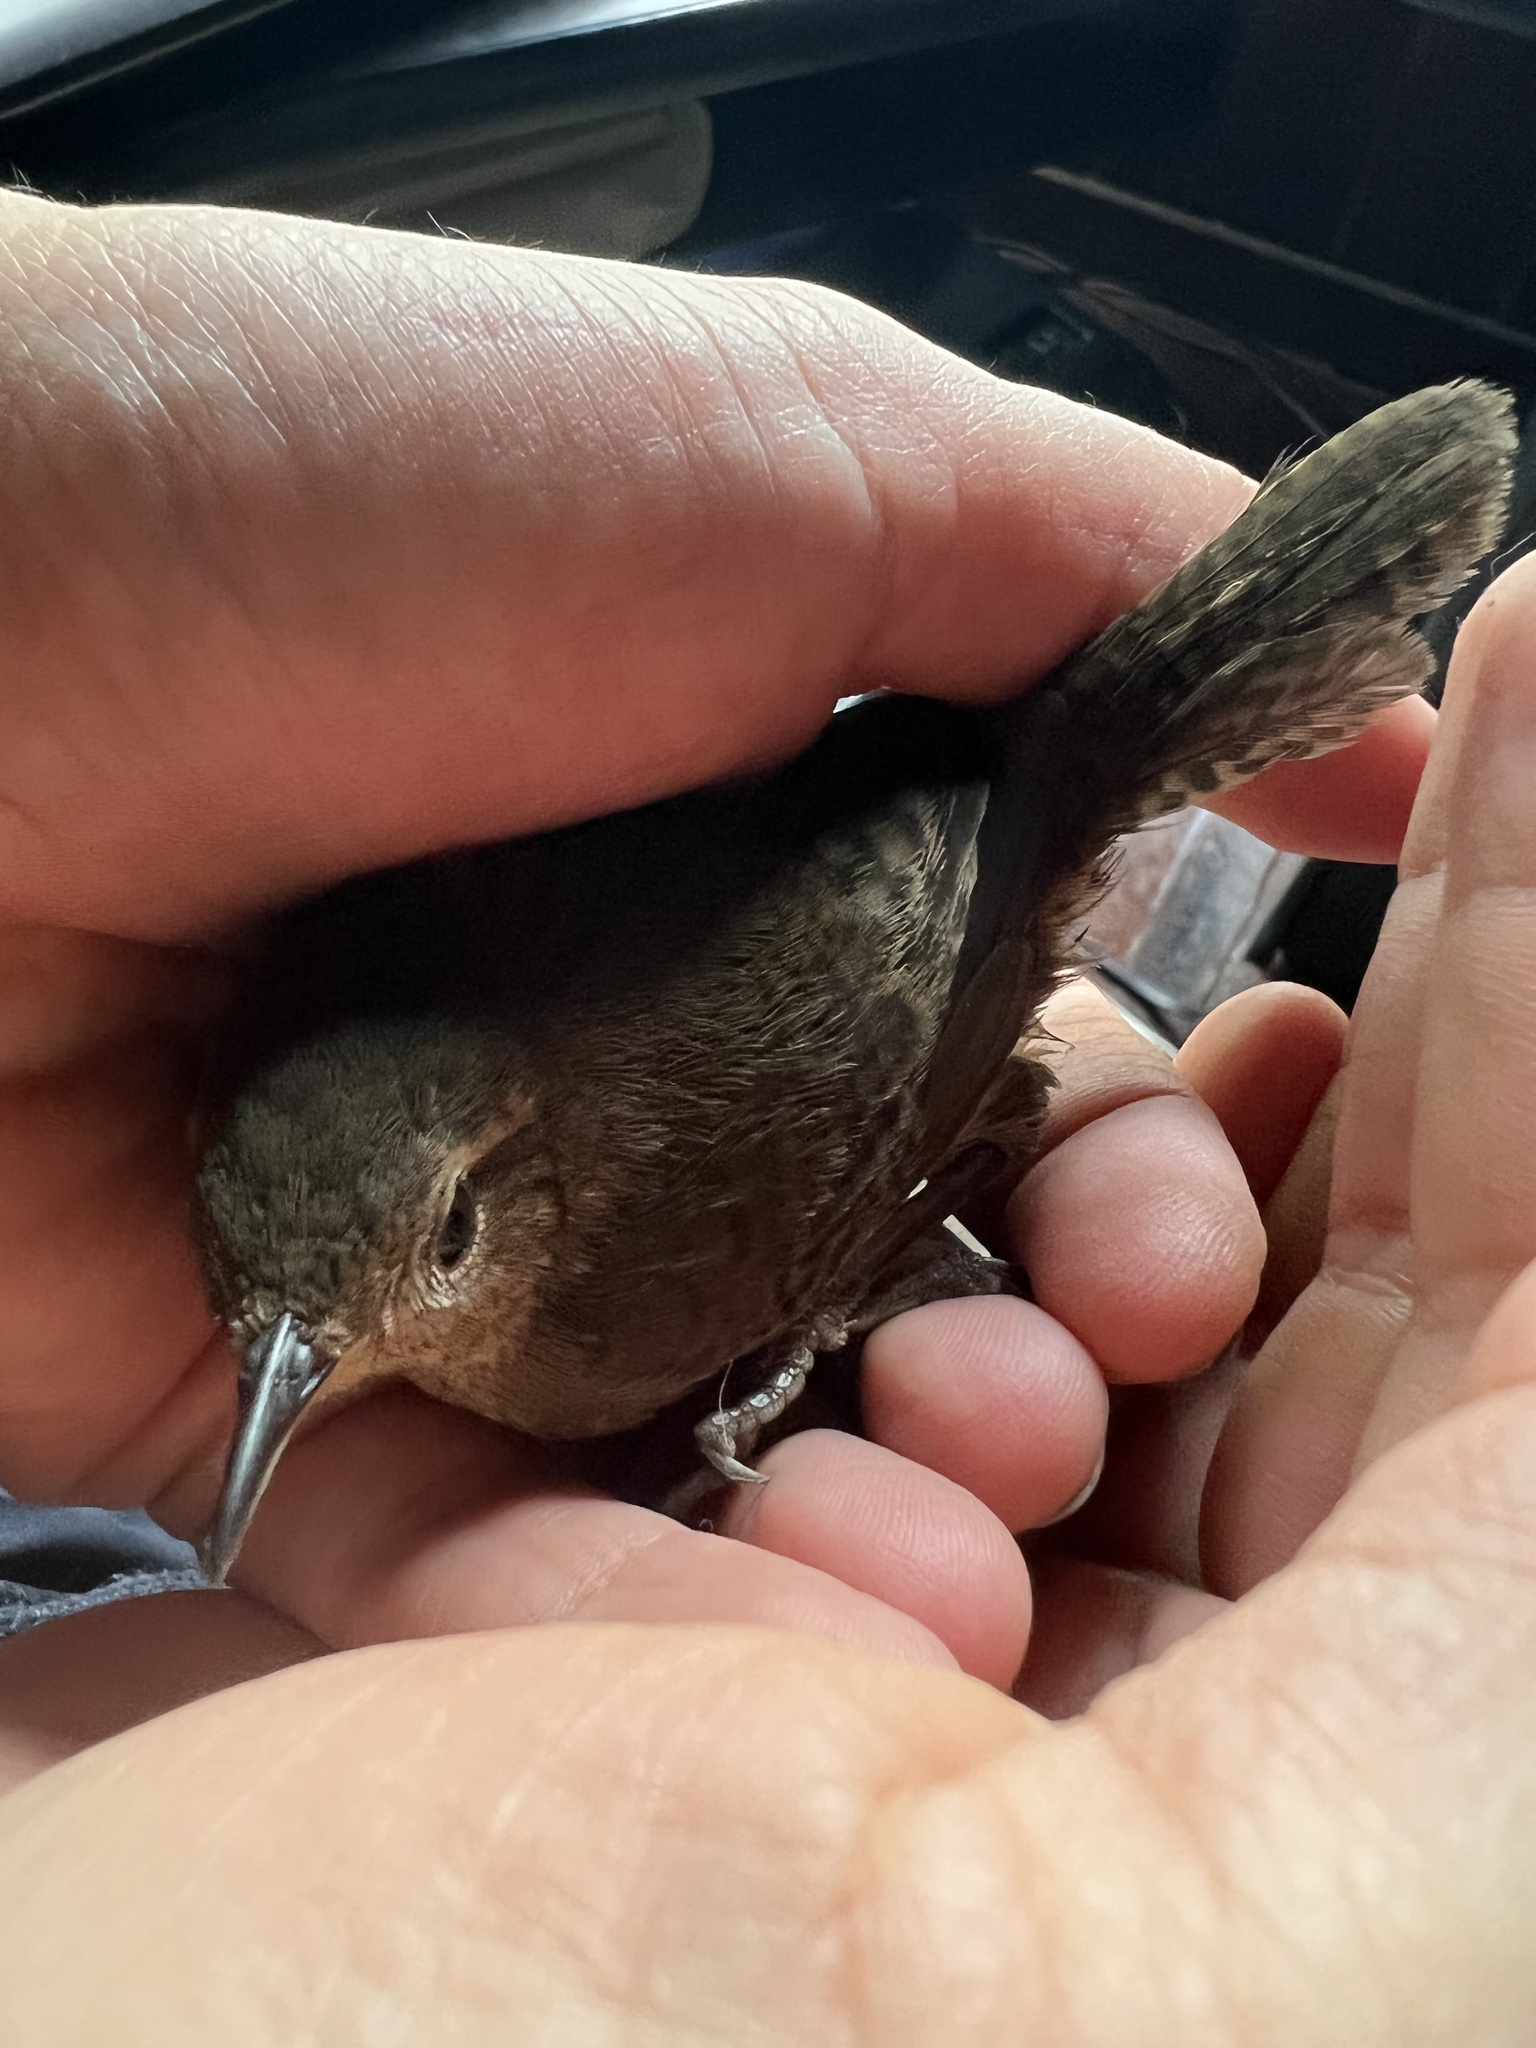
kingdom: Animalia
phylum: Chordata
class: Aves
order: Passeriformes
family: Troglodytidae
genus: Troglodytes
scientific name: Troglodytes aedon
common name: House wren
